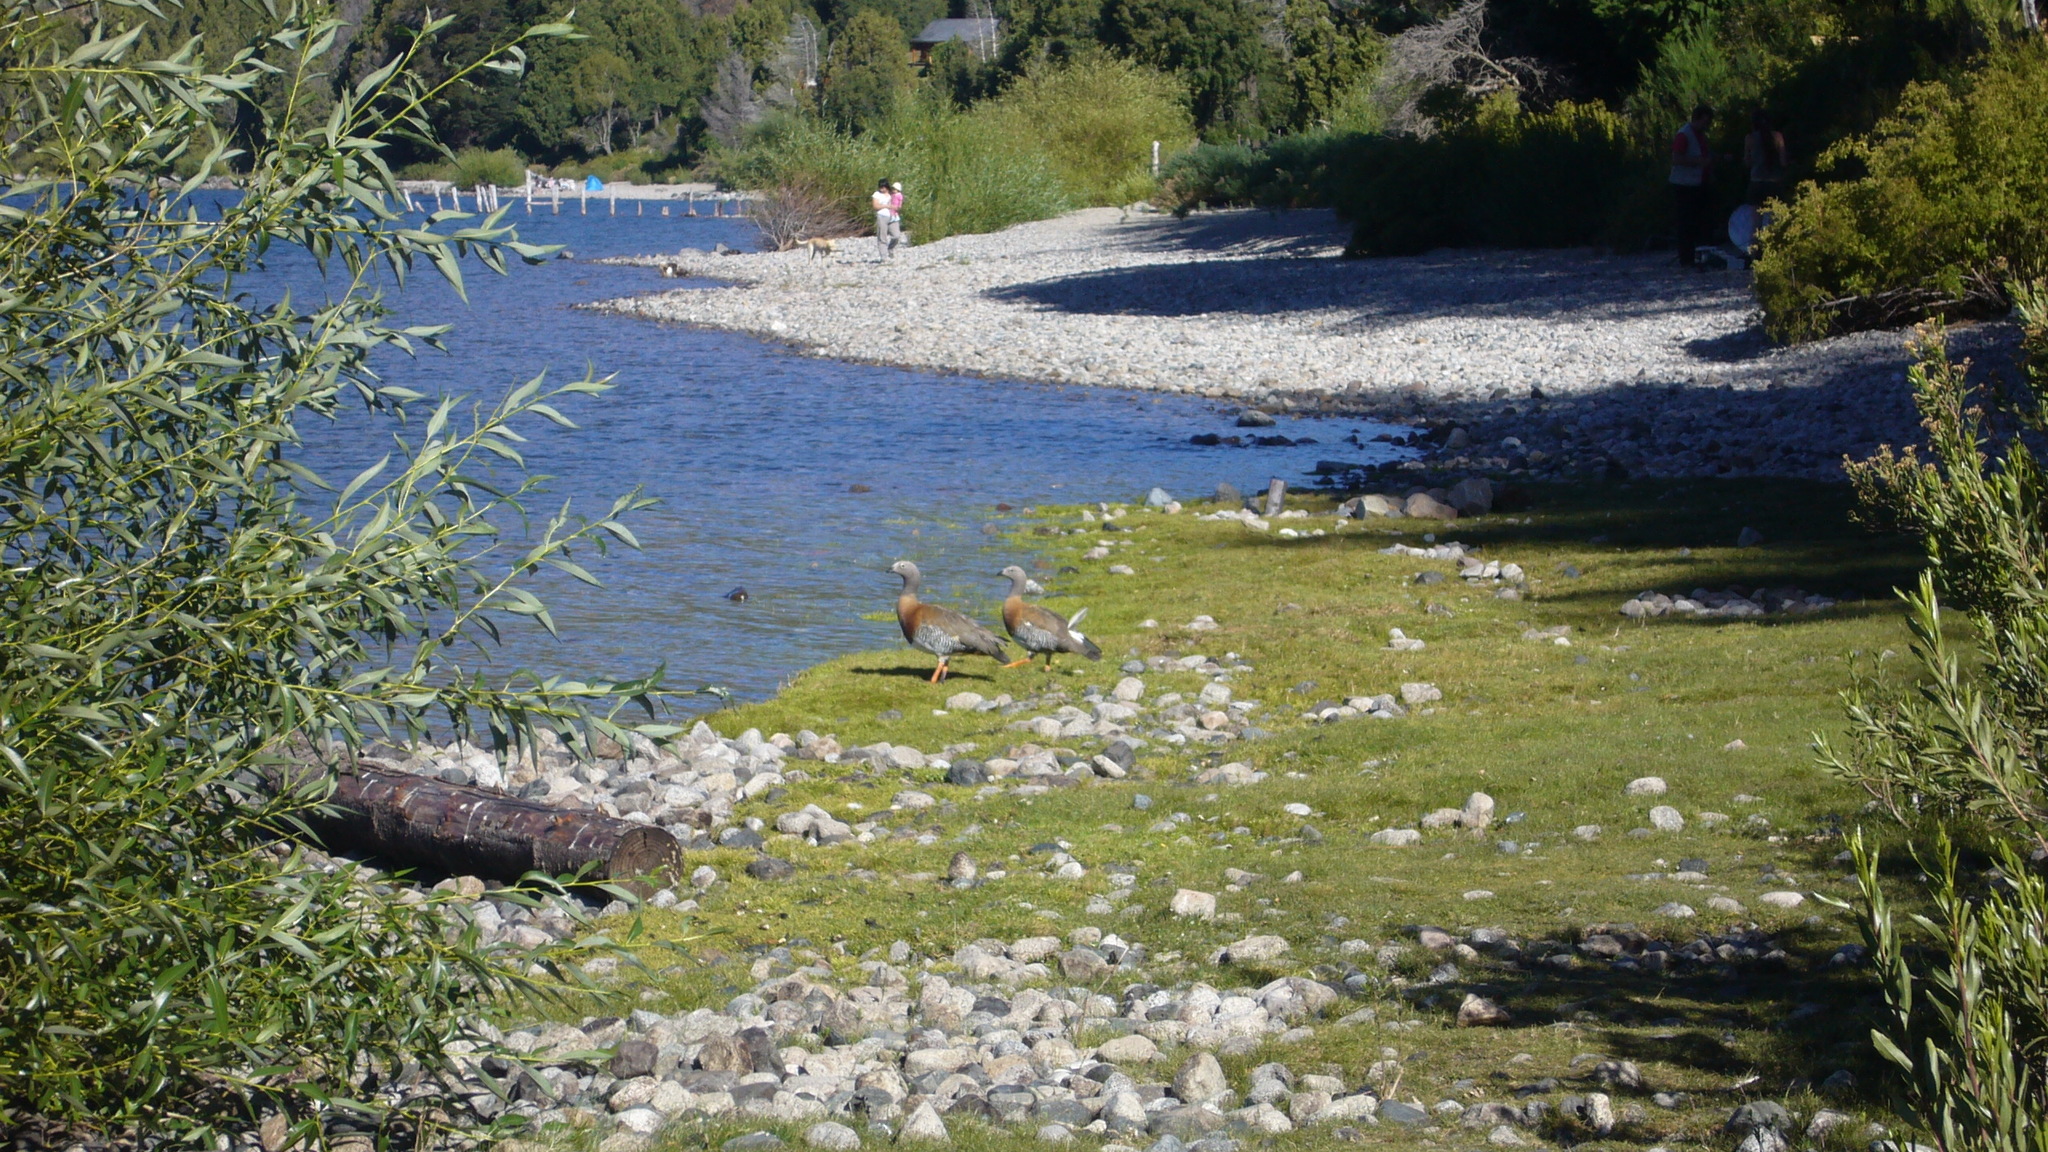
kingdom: Animalia
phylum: Chordata
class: Aves
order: Anseriformes
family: Anatidae
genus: Chloephaga
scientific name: Chloephaga poliocephala
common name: Ashy-headed goose
